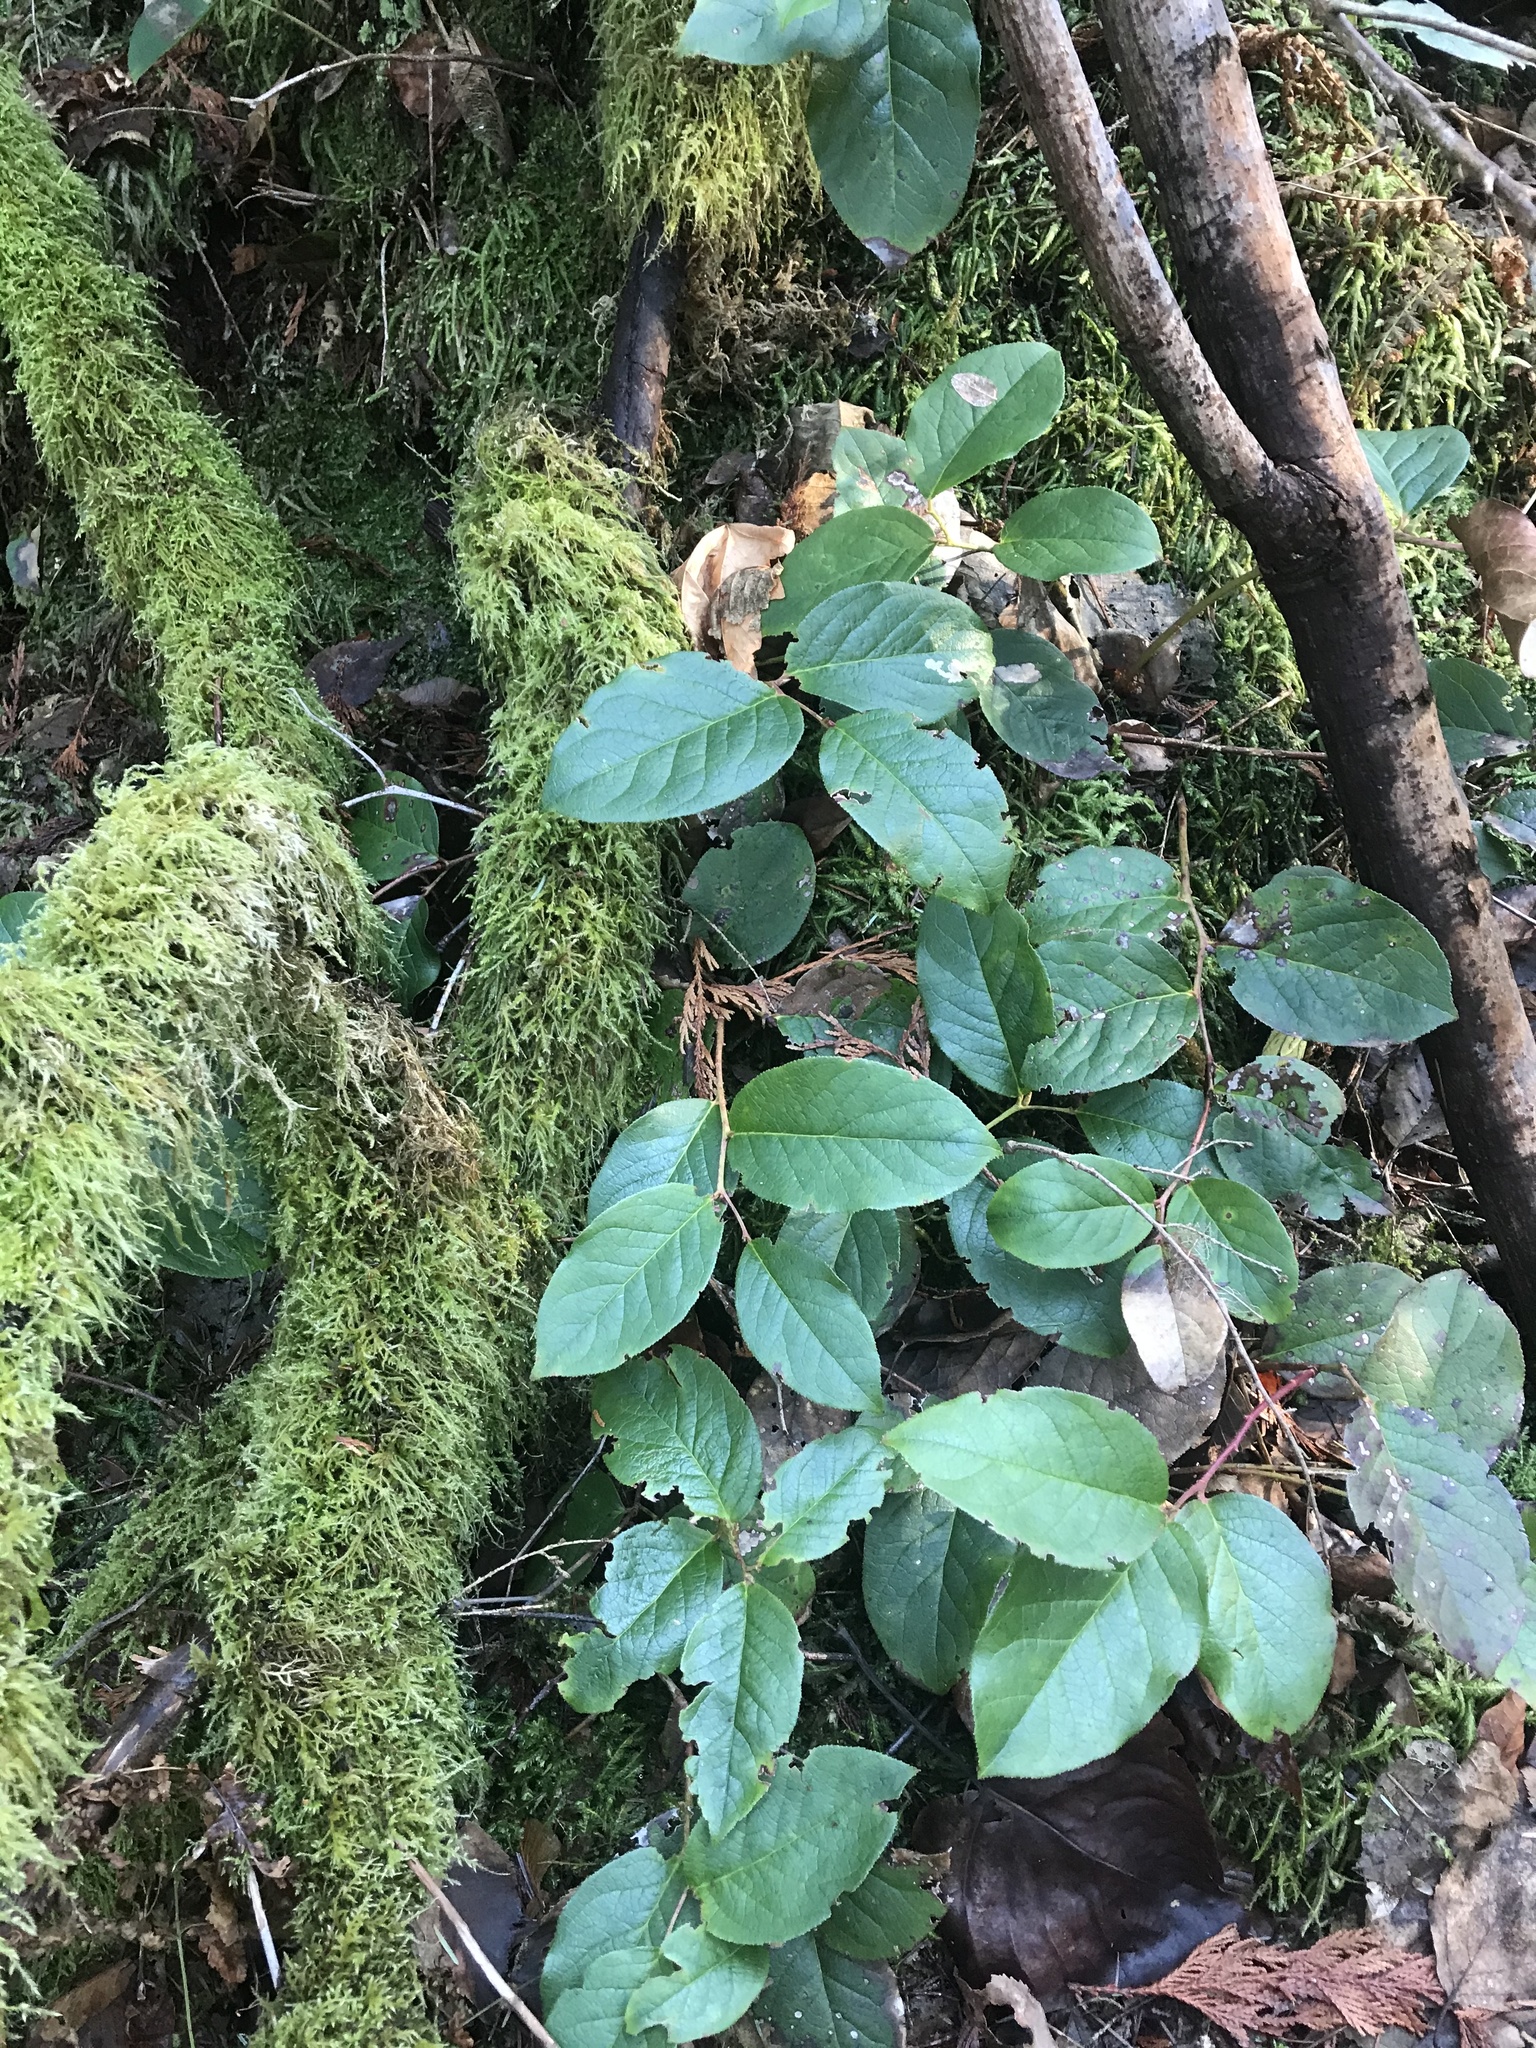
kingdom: Plantae
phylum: Tracheophyta
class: Magnoliopsida
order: Ericales
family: Ericaceae
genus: Gaultheria
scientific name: Gaultheria shallon
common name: Shallon
